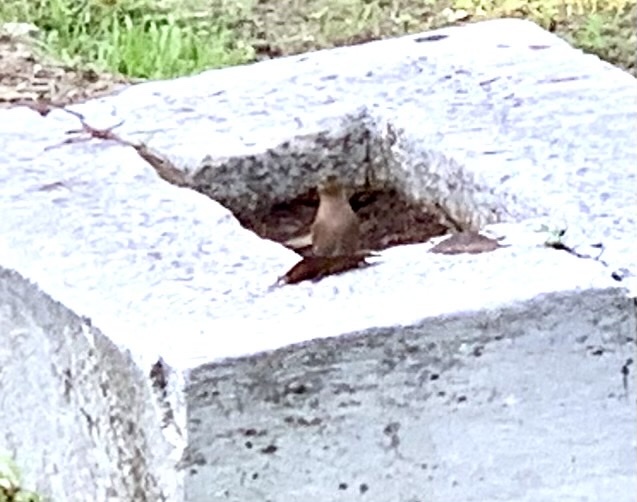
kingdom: Animalia
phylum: Chordata
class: Aves
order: Passeriformes
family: Fringillidae
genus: Fringilla
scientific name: Fringilla coelebs
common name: Common chaffinch
